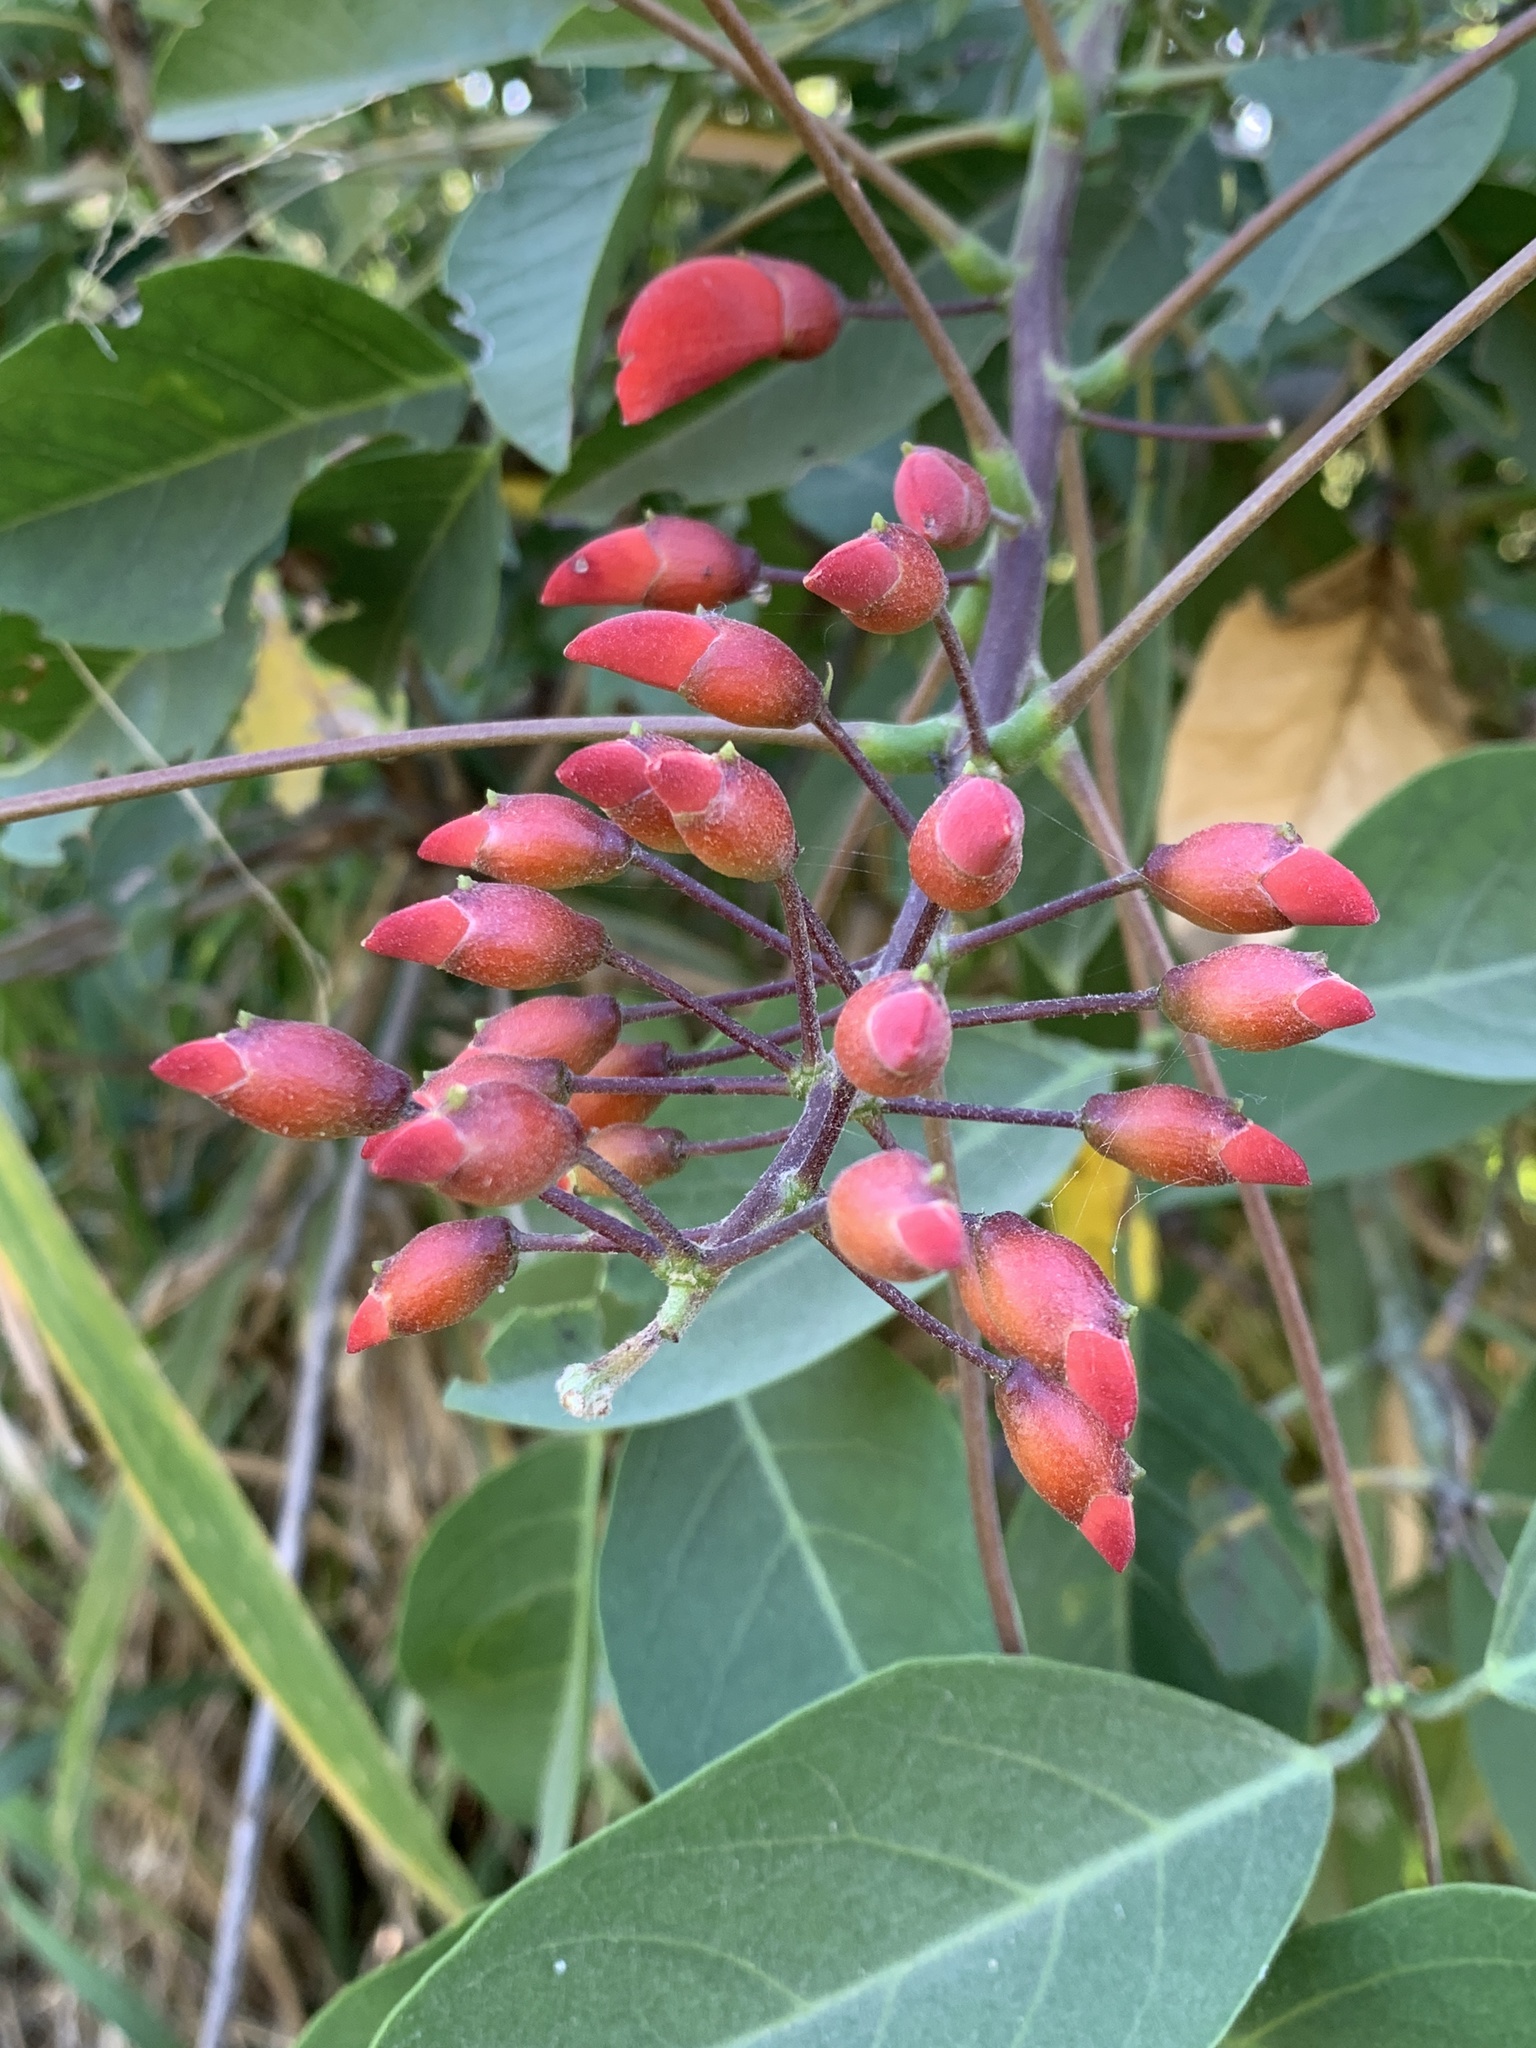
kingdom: Plantae
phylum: Tracheophyta
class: Magnoliopsida
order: Fabales
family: Fabaceae
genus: Erythrina
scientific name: Erythrina crista-galli
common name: Cockspur coral tree
